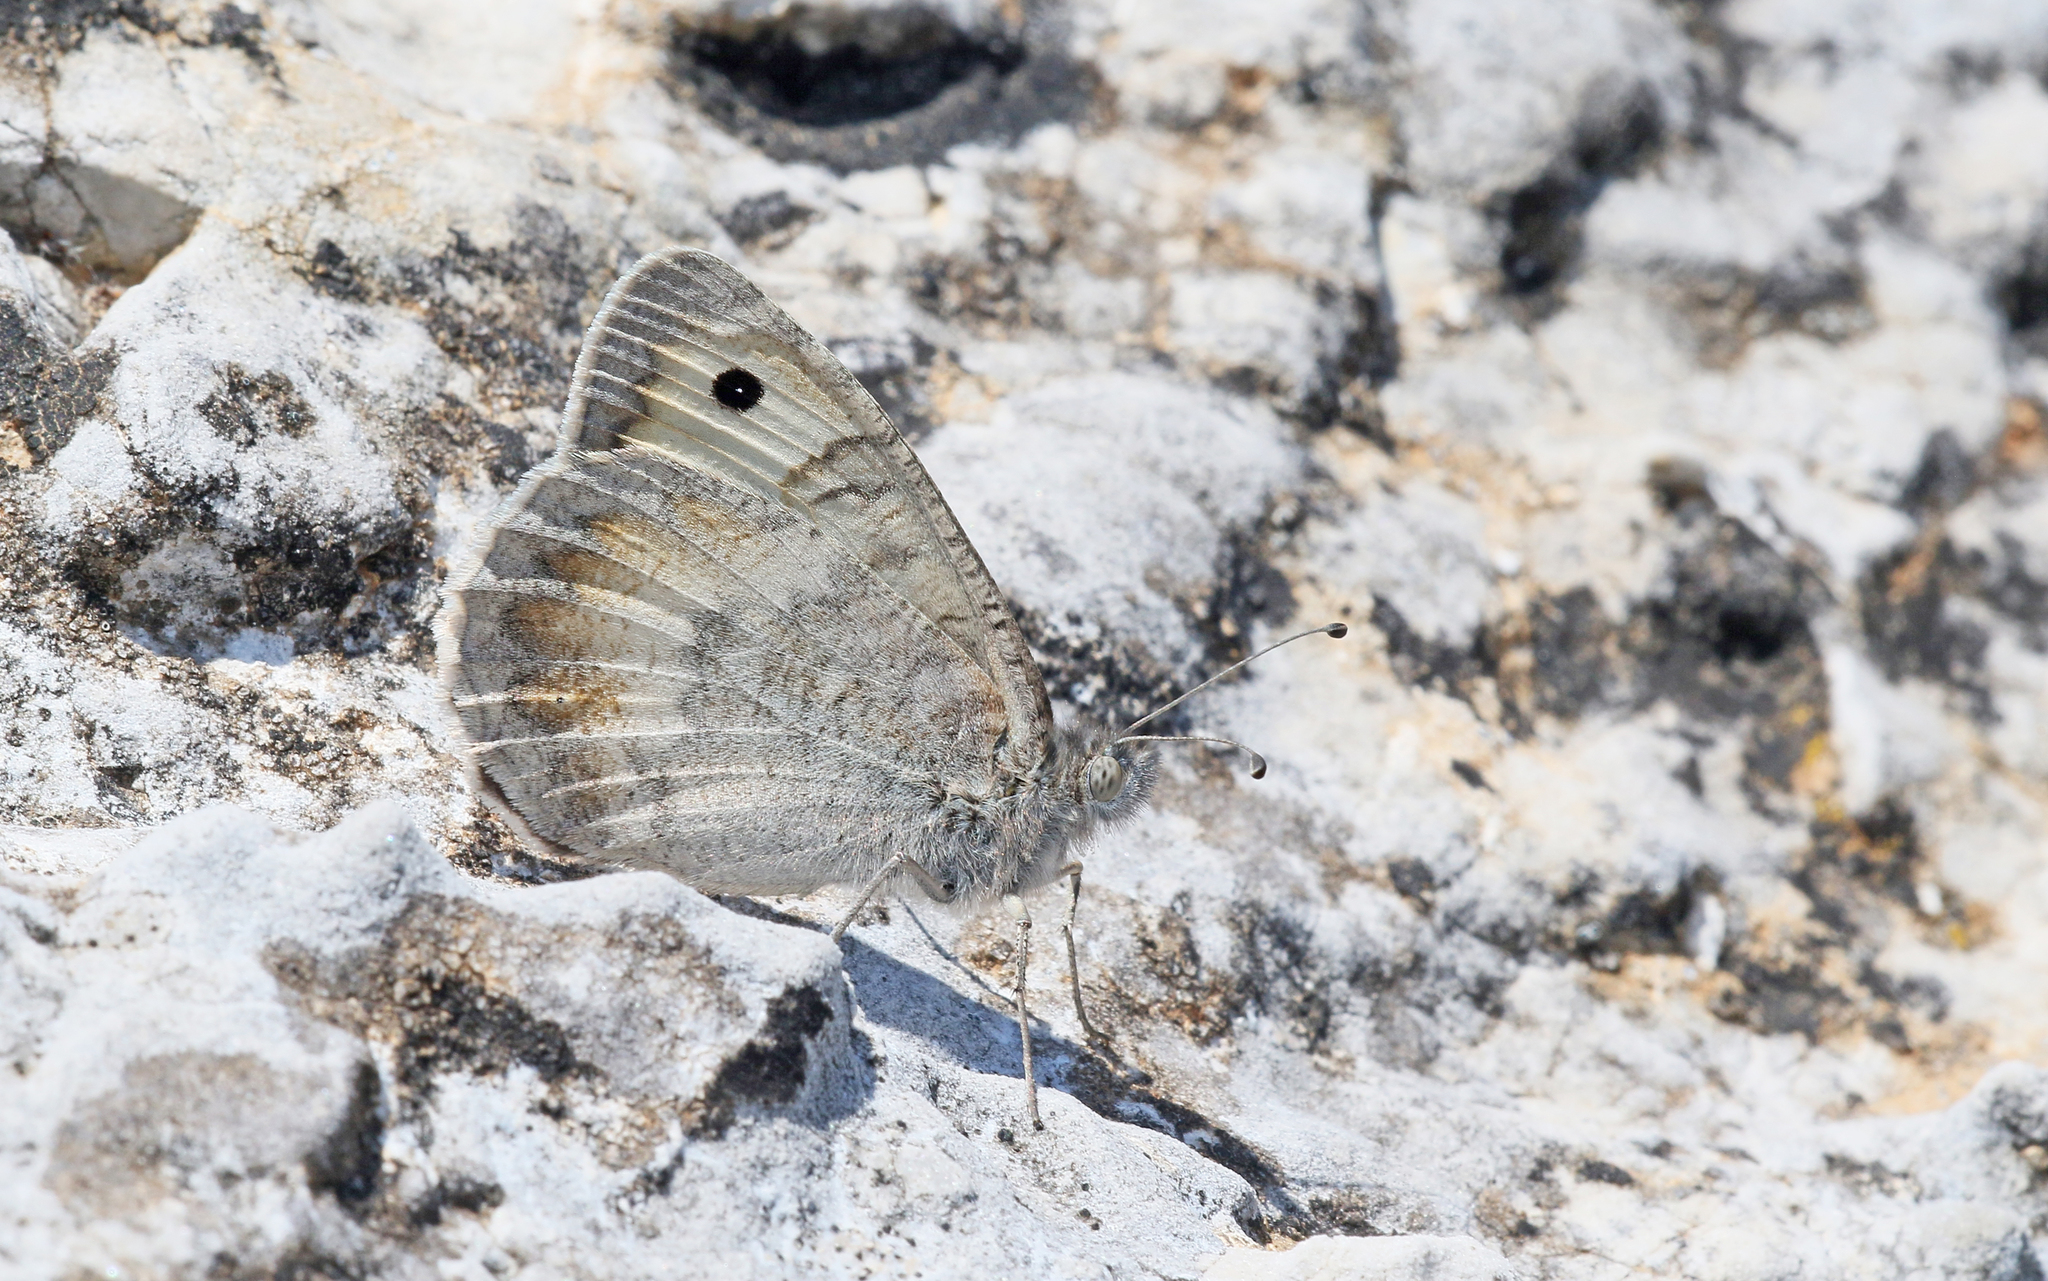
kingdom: Animalia
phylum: Arthropoda
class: Insecta
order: Lepidoptera
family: Nymphalidae
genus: Pseudochazara
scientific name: Pseudochazara graeca
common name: Grecian grayling
